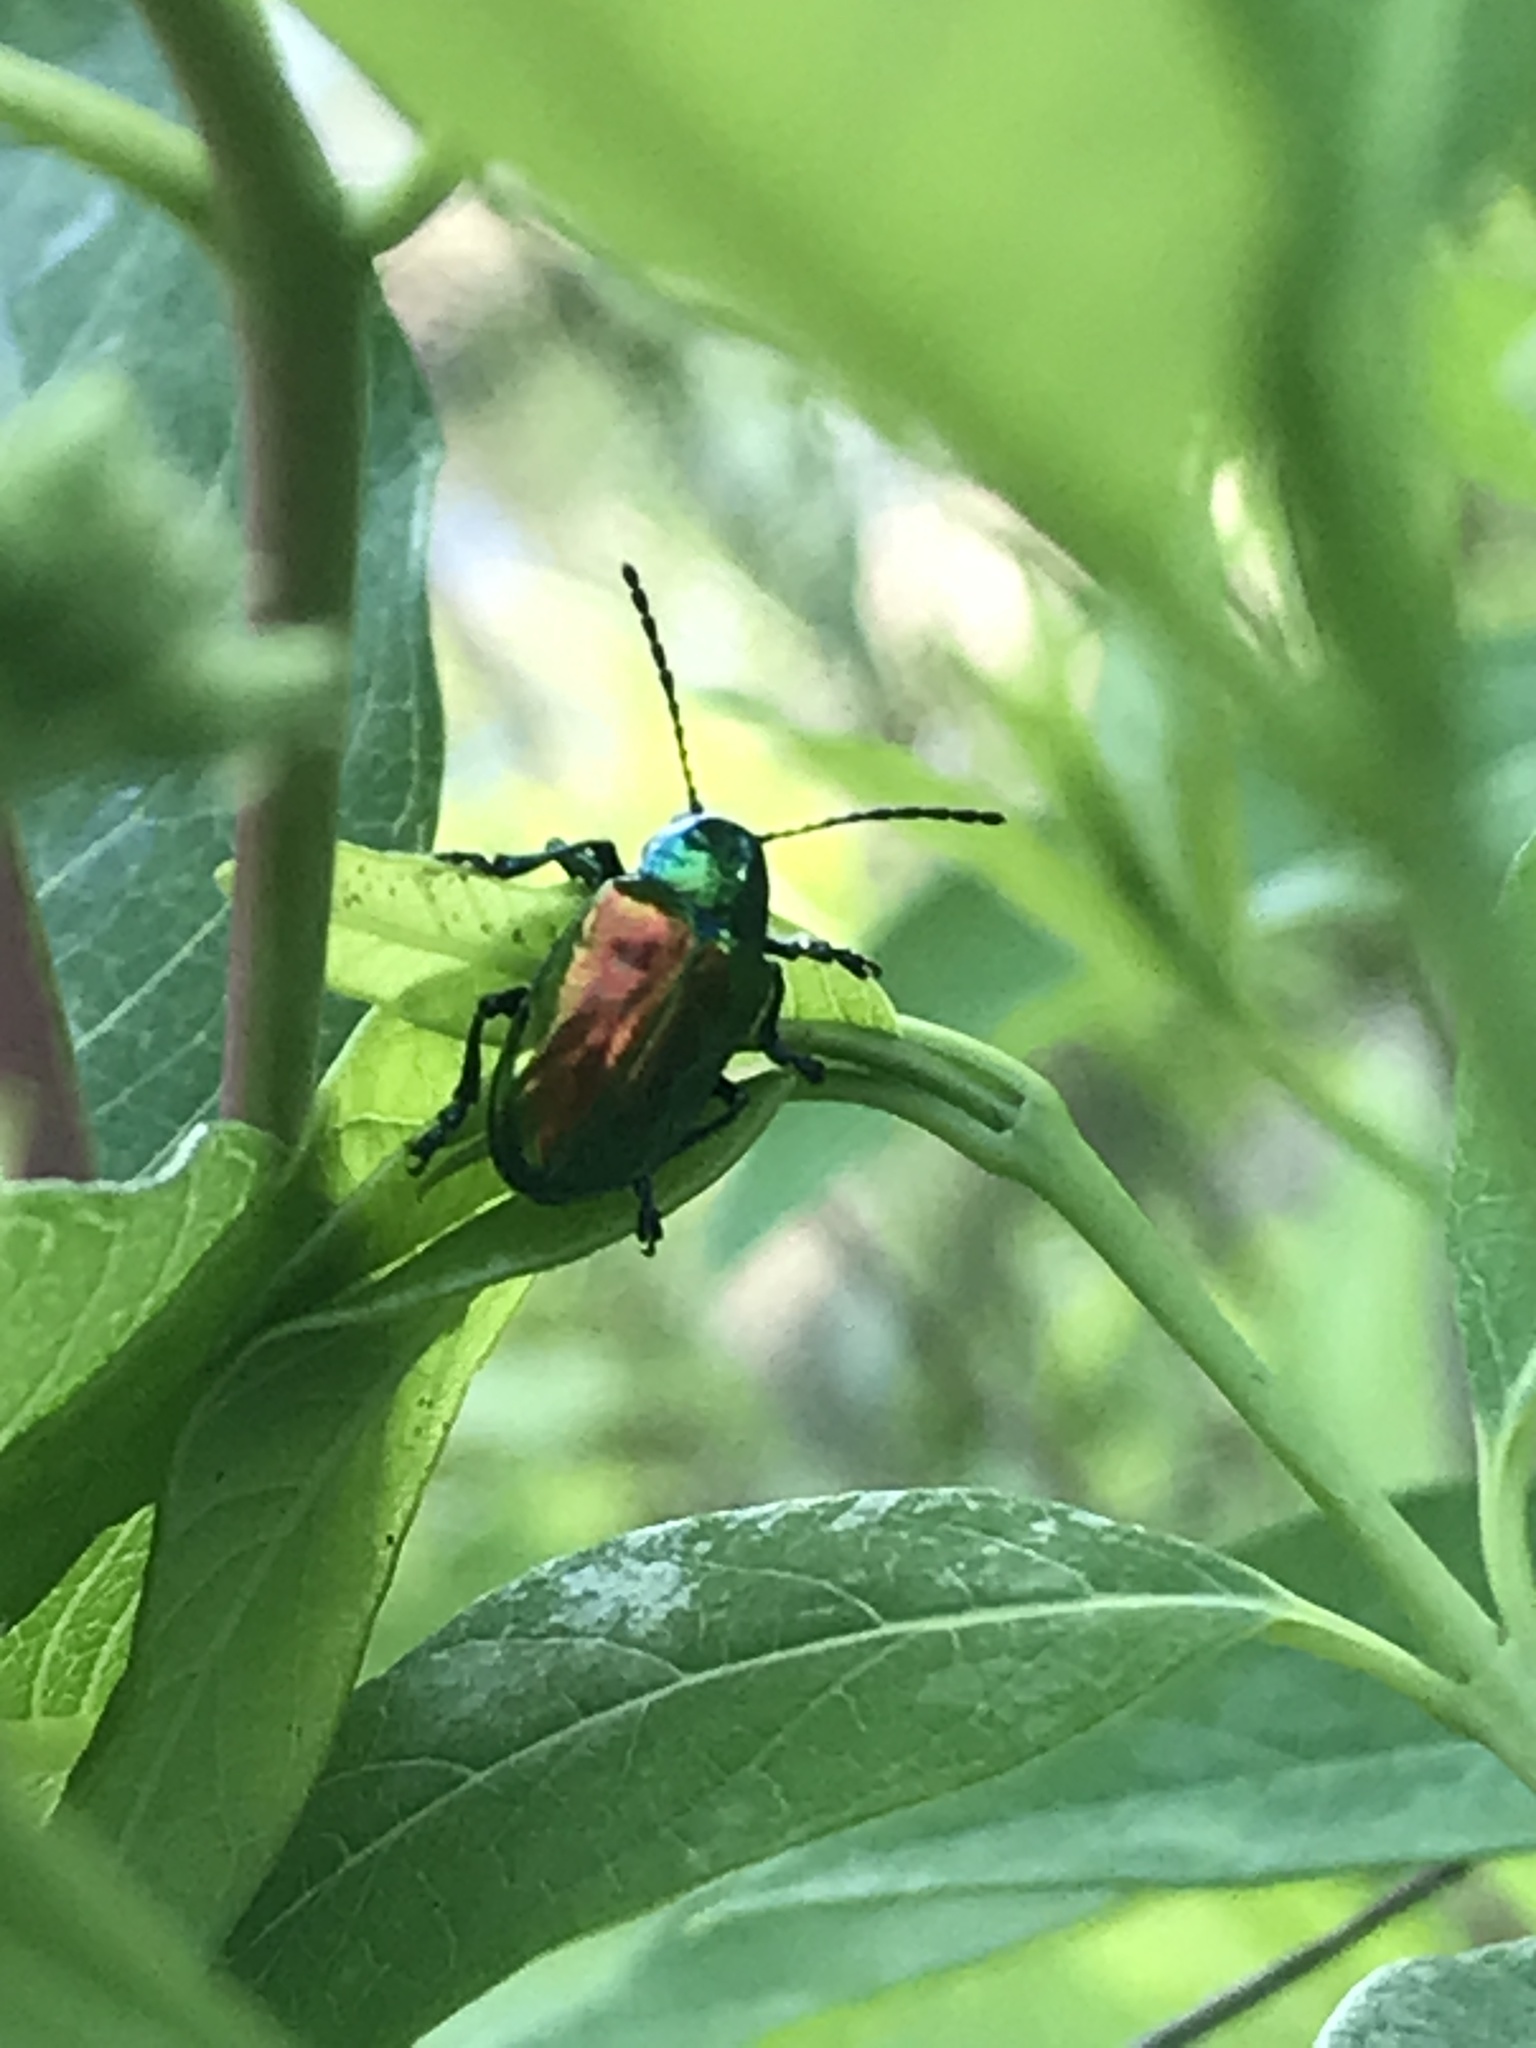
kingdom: Animalia
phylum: Arthropoda
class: Insecta
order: Coleoptera
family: Chrysomelidae
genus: Chrysochus
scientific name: Chrysochus auratus
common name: Dogbane leaf beetle
